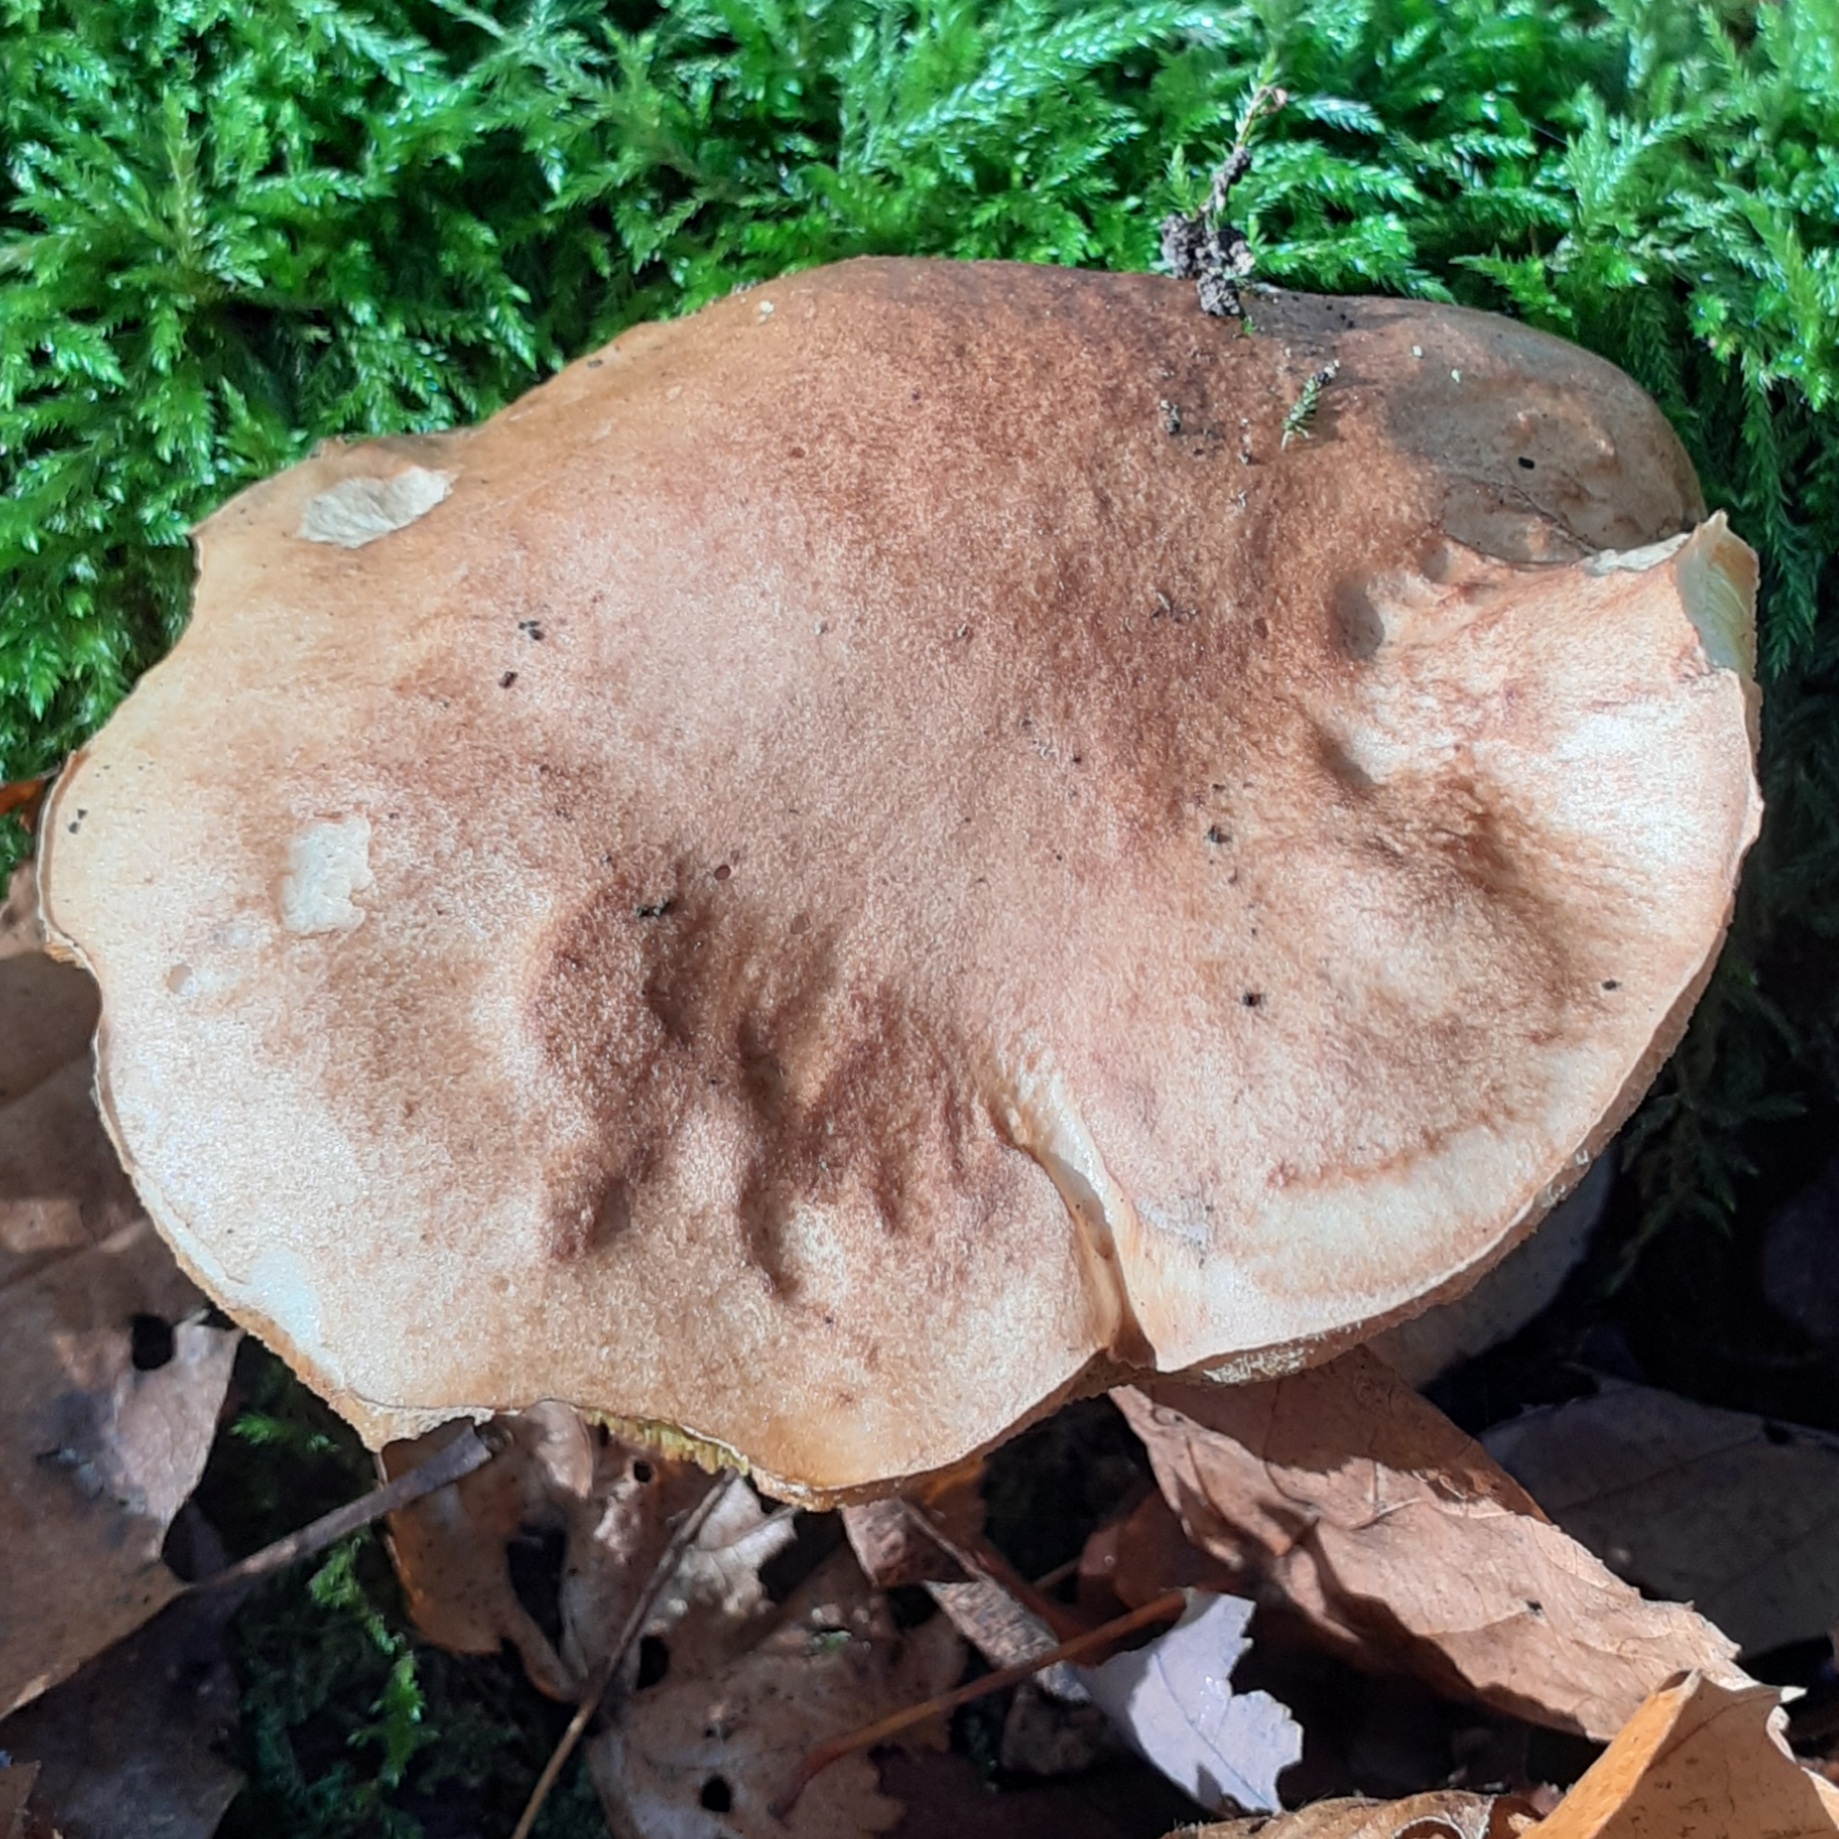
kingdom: Fungi
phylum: Basidiomycota
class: Agaricomycetes
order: Boletales
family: Boletaceae
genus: Boletus
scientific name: Boletus reticulatus
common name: Summer bolete
